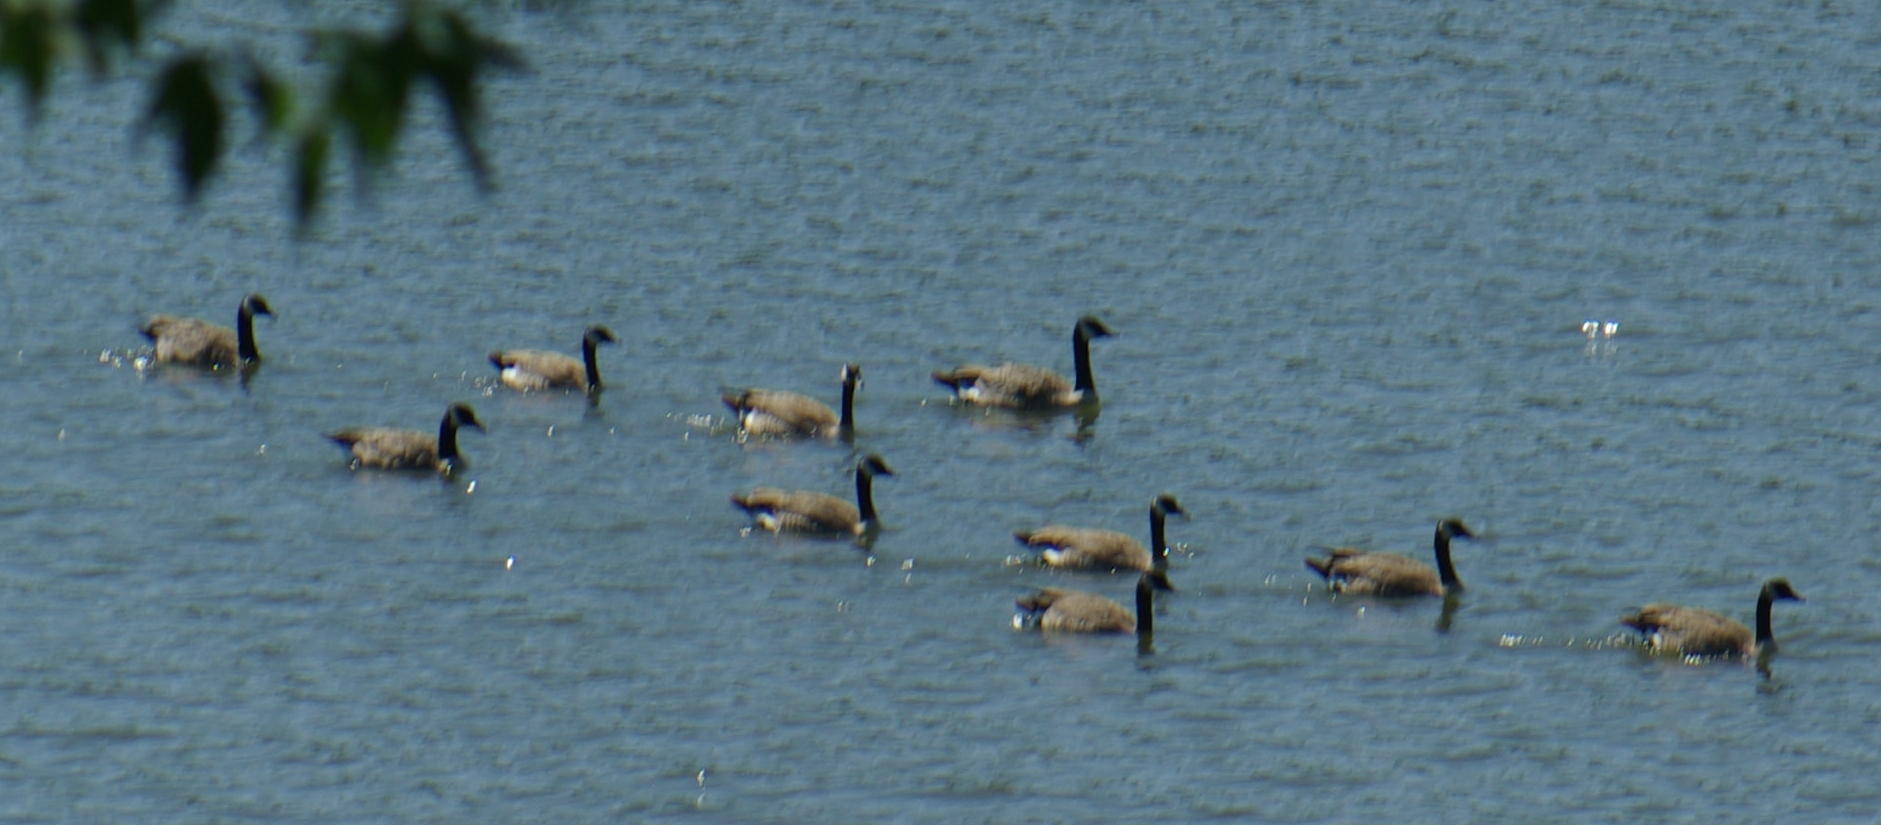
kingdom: Animalia
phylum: Chordata
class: Aves
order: Anseriformes
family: Anatidae
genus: Branta
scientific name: Branta canadensis
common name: Canada goose
